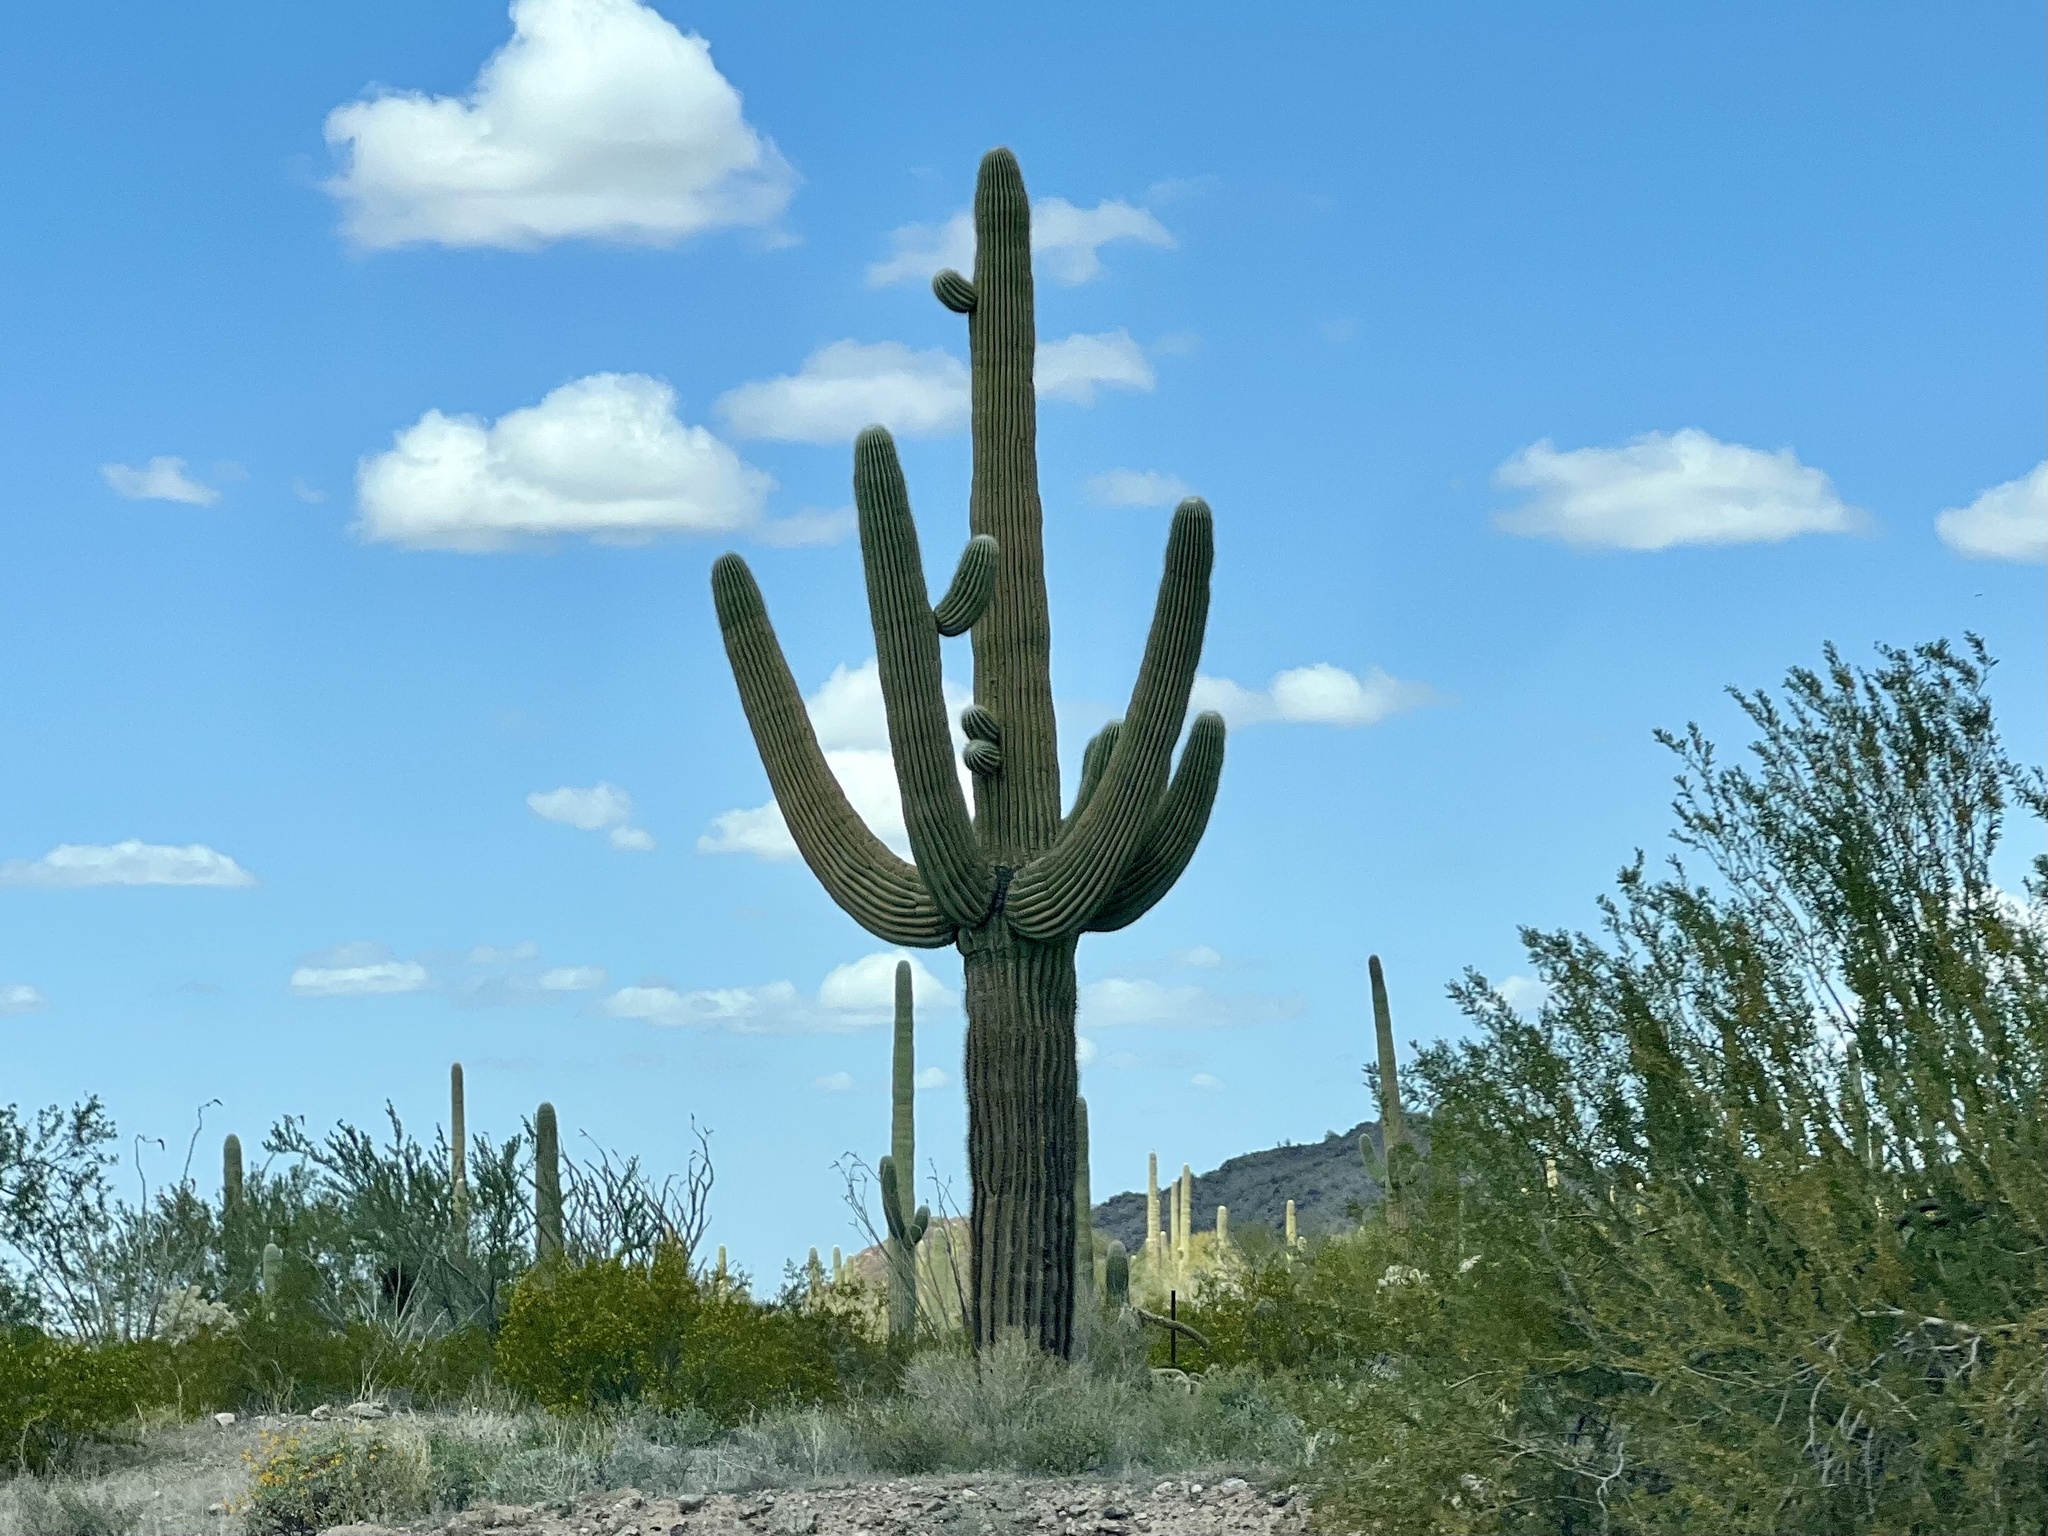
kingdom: Plantae
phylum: Tracheophyta
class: Magnoliopsida
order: Caryophyllales
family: Cactaceae
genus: Carnegiea
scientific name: Carnegiea gigantea
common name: Saguaro
